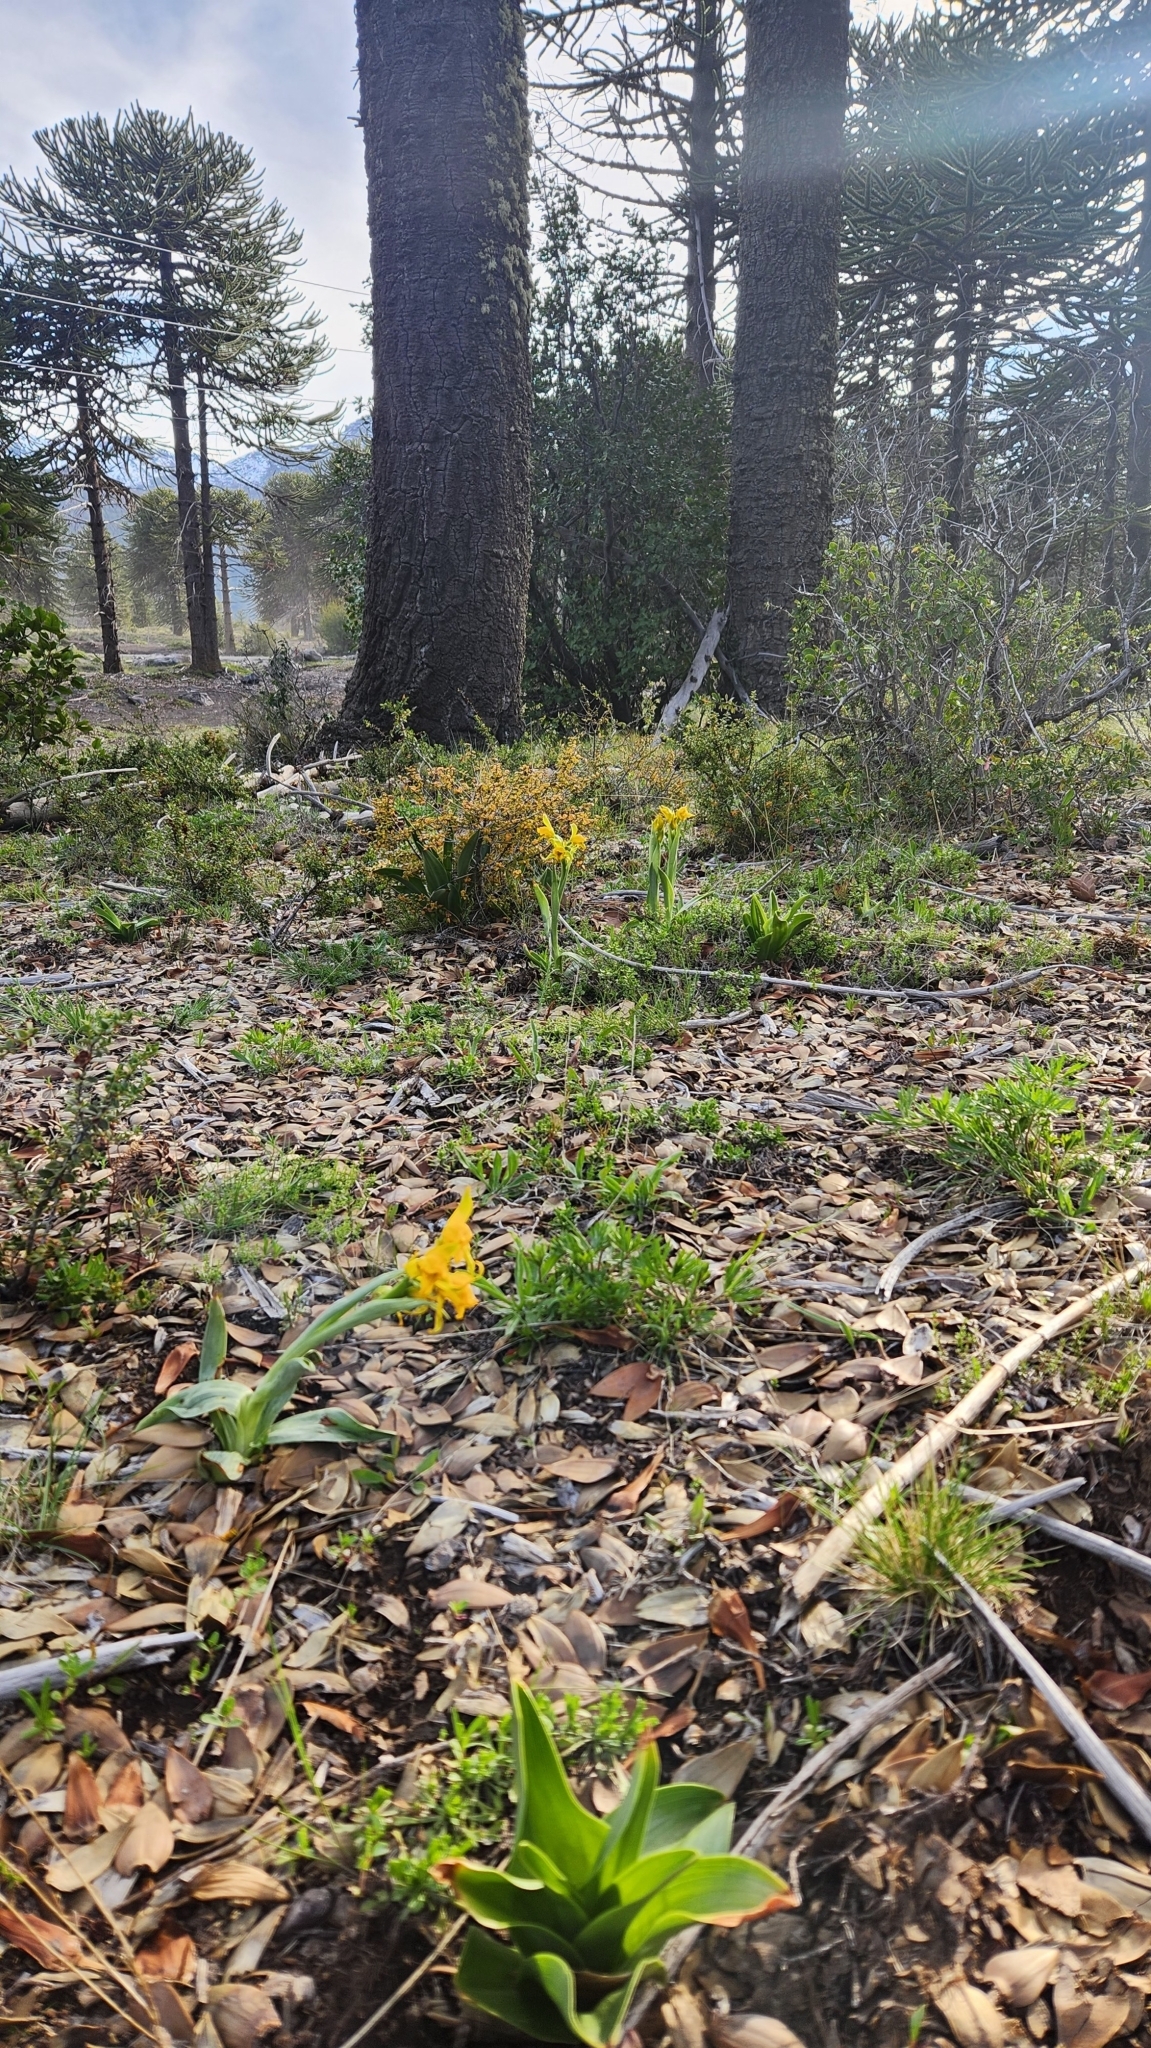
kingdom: Plantae
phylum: Tracheophyta
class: Liliopsida
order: Asparagales
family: Orchidaceae
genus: Chloraea
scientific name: Chloraea alpina
